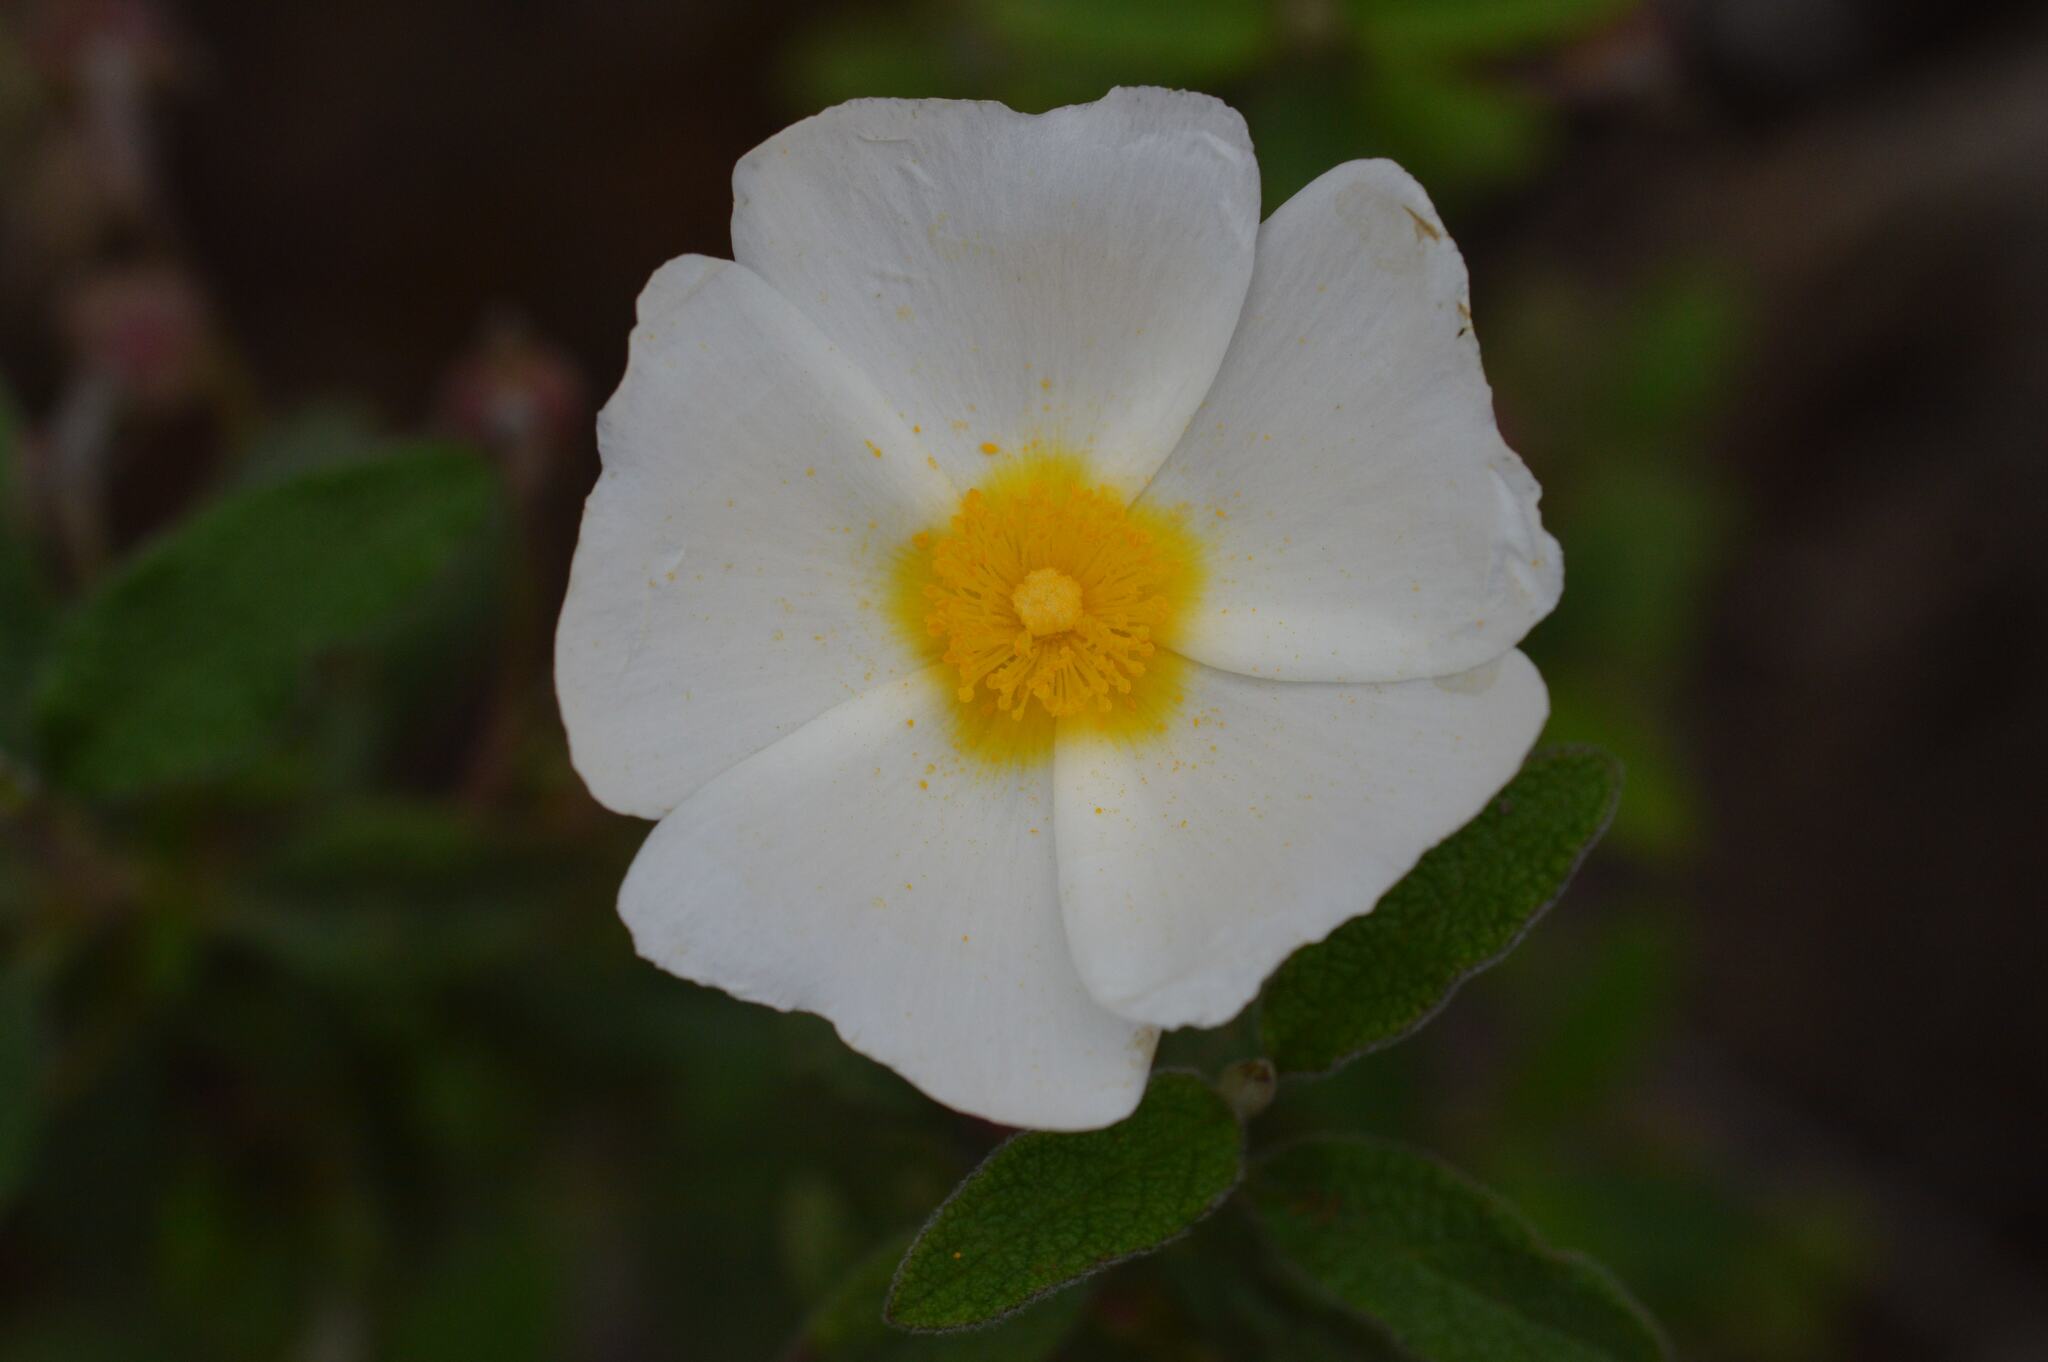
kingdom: Plantae
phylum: Tracheophyta
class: Magnoliopsida
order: Malvales
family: Cistaceae
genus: Cistus
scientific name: Cistus salviifolius
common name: Salvia cistus
